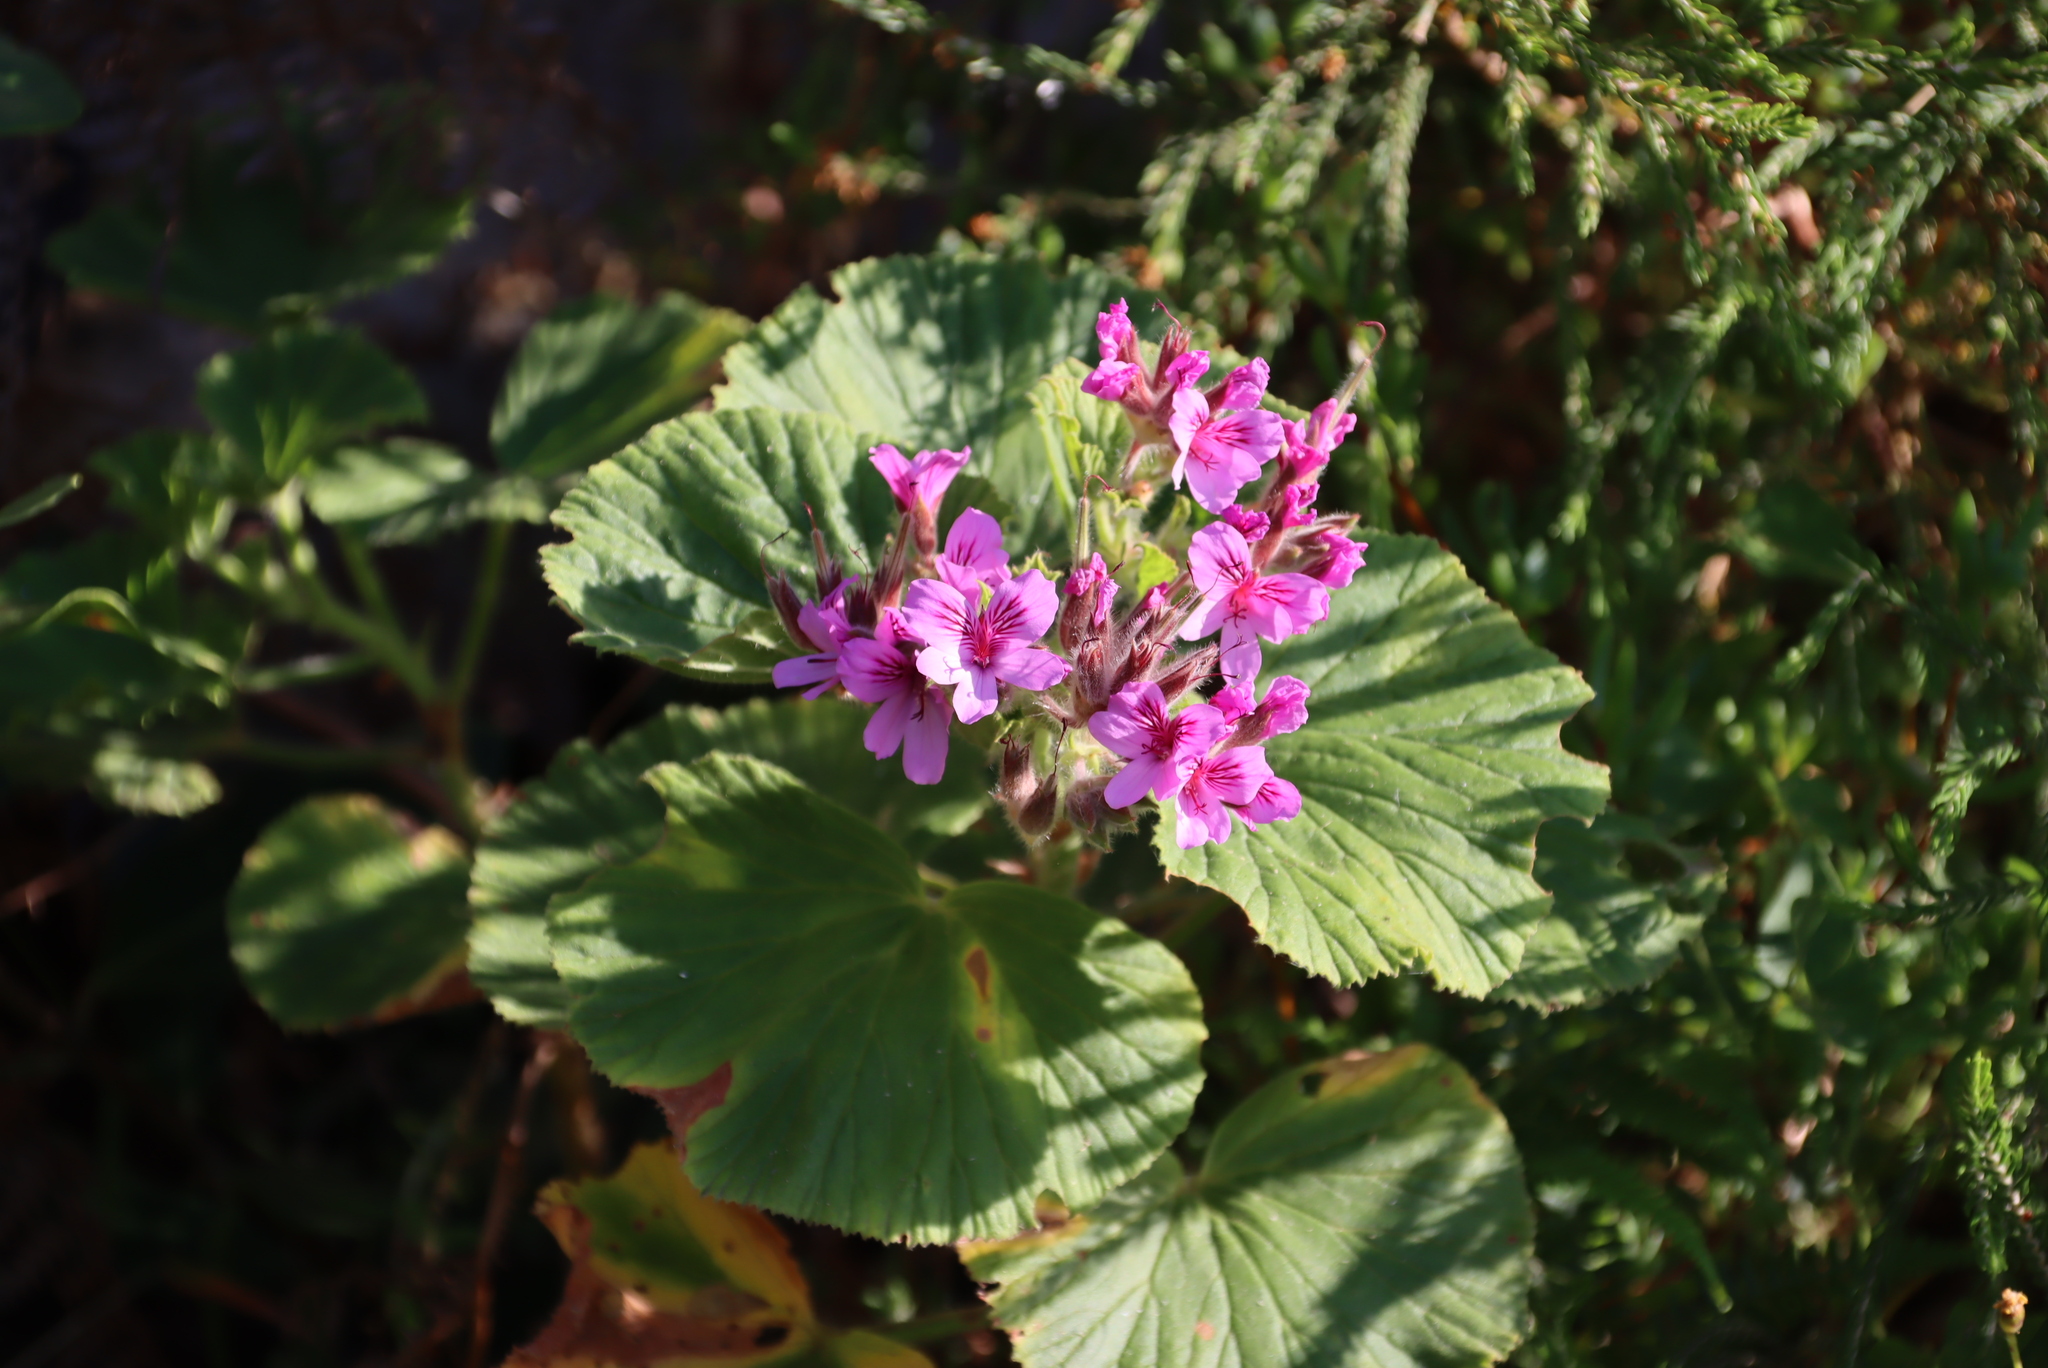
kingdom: Plantae
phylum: Tracheophyta
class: Magnoliopsida
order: Geraniales
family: Geraniaceae
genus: Pelargonium
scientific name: Pelargonium cucullatum
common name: Tree pelargonium
